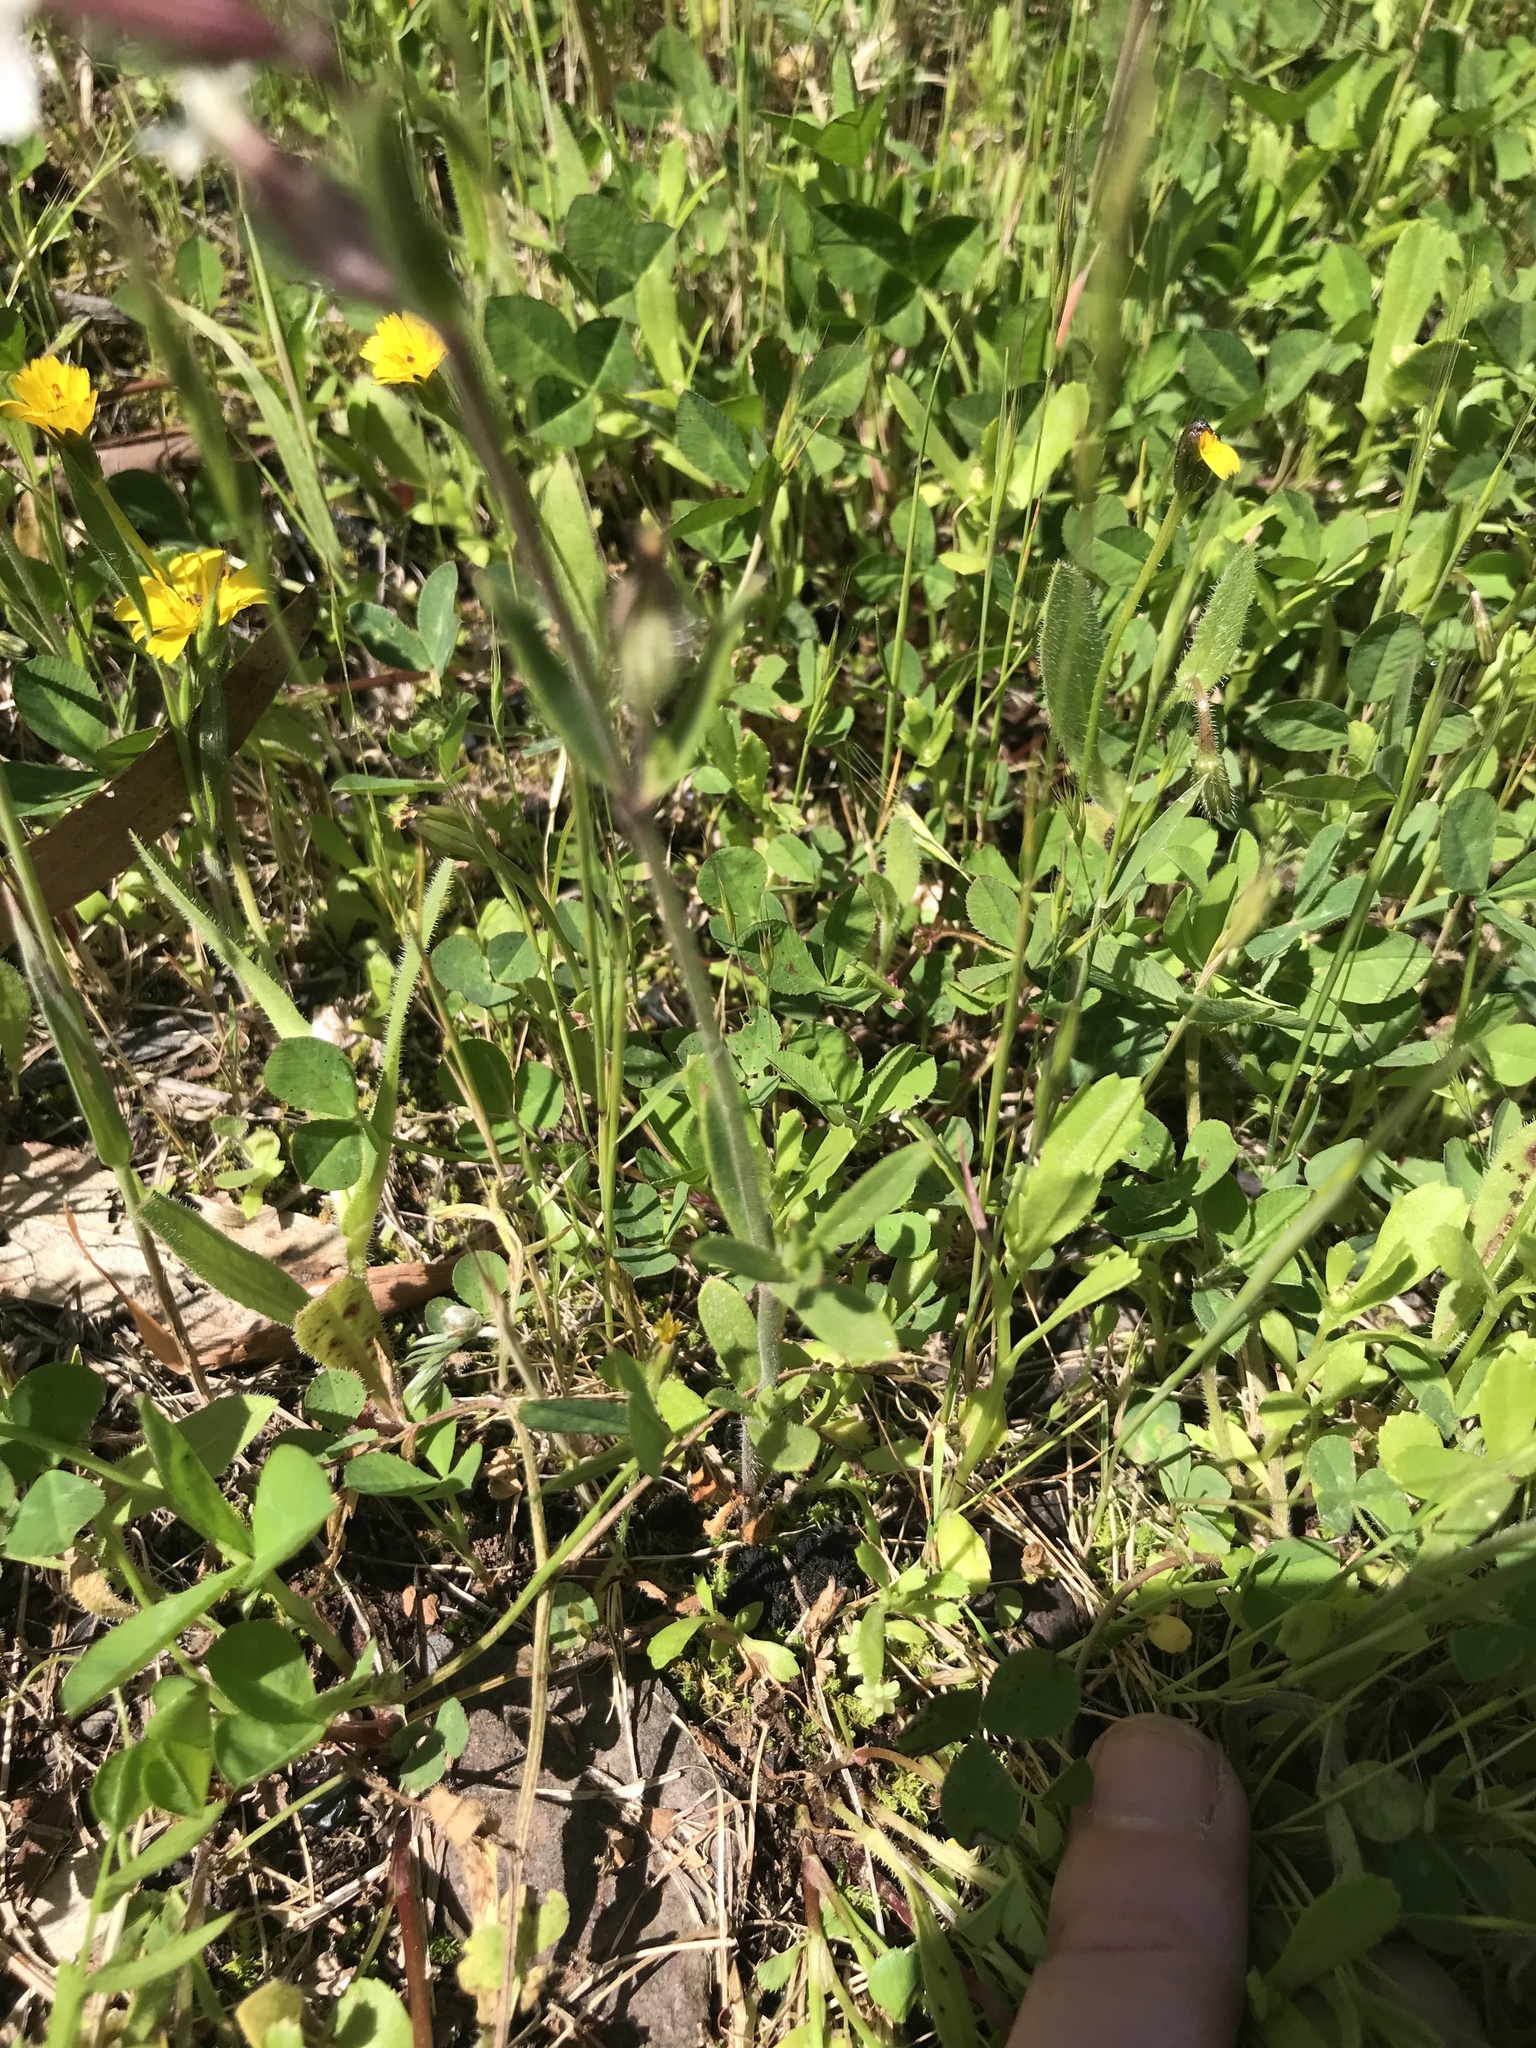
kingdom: Plantae
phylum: Tracheophyta
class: Magnoliopsida
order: Caryophyllales
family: Caryophyllaceae
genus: Silene
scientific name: Silene gallica
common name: Small-flowered catchfly
